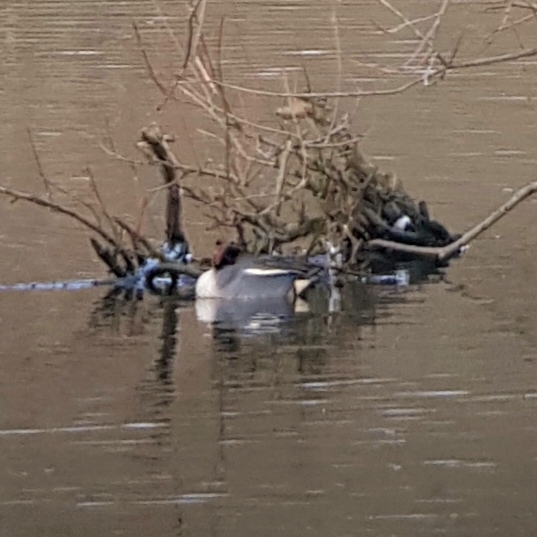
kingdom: Animalia
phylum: Chordata
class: Aves
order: Anseriformes
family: Anatidae
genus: Anas
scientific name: Anas crecca
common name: Eurasian teal
